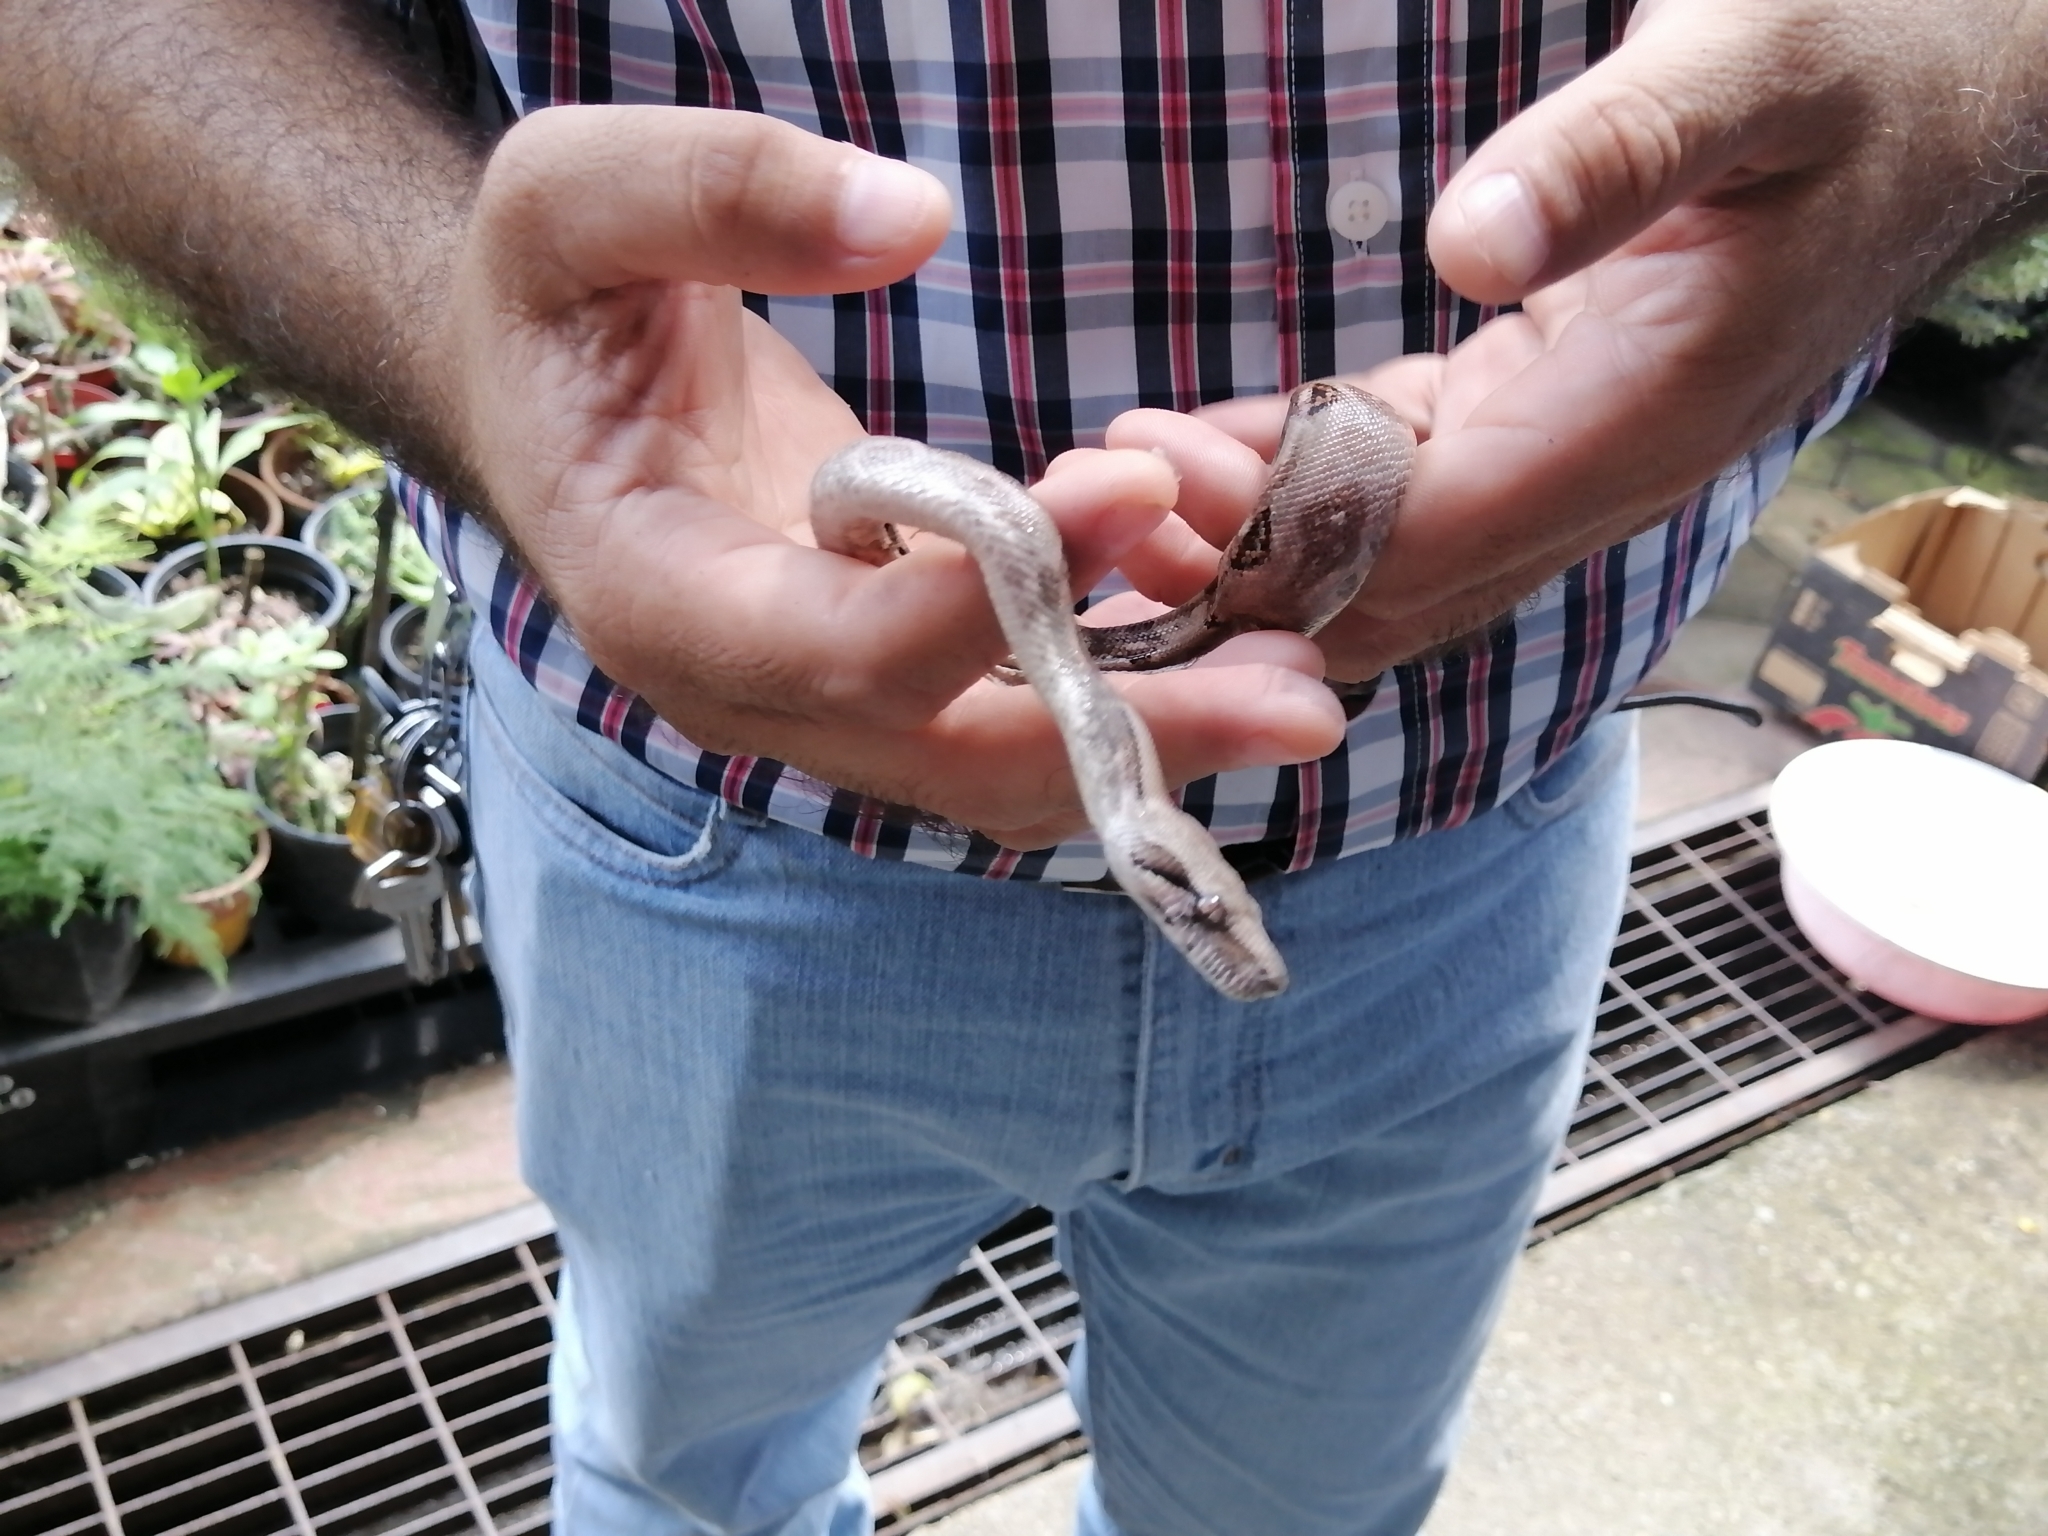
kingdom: Animalia
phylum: Chordata
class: Squamata
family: Boidae
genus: Boa
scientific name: Boa imperator
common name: Central american boa
